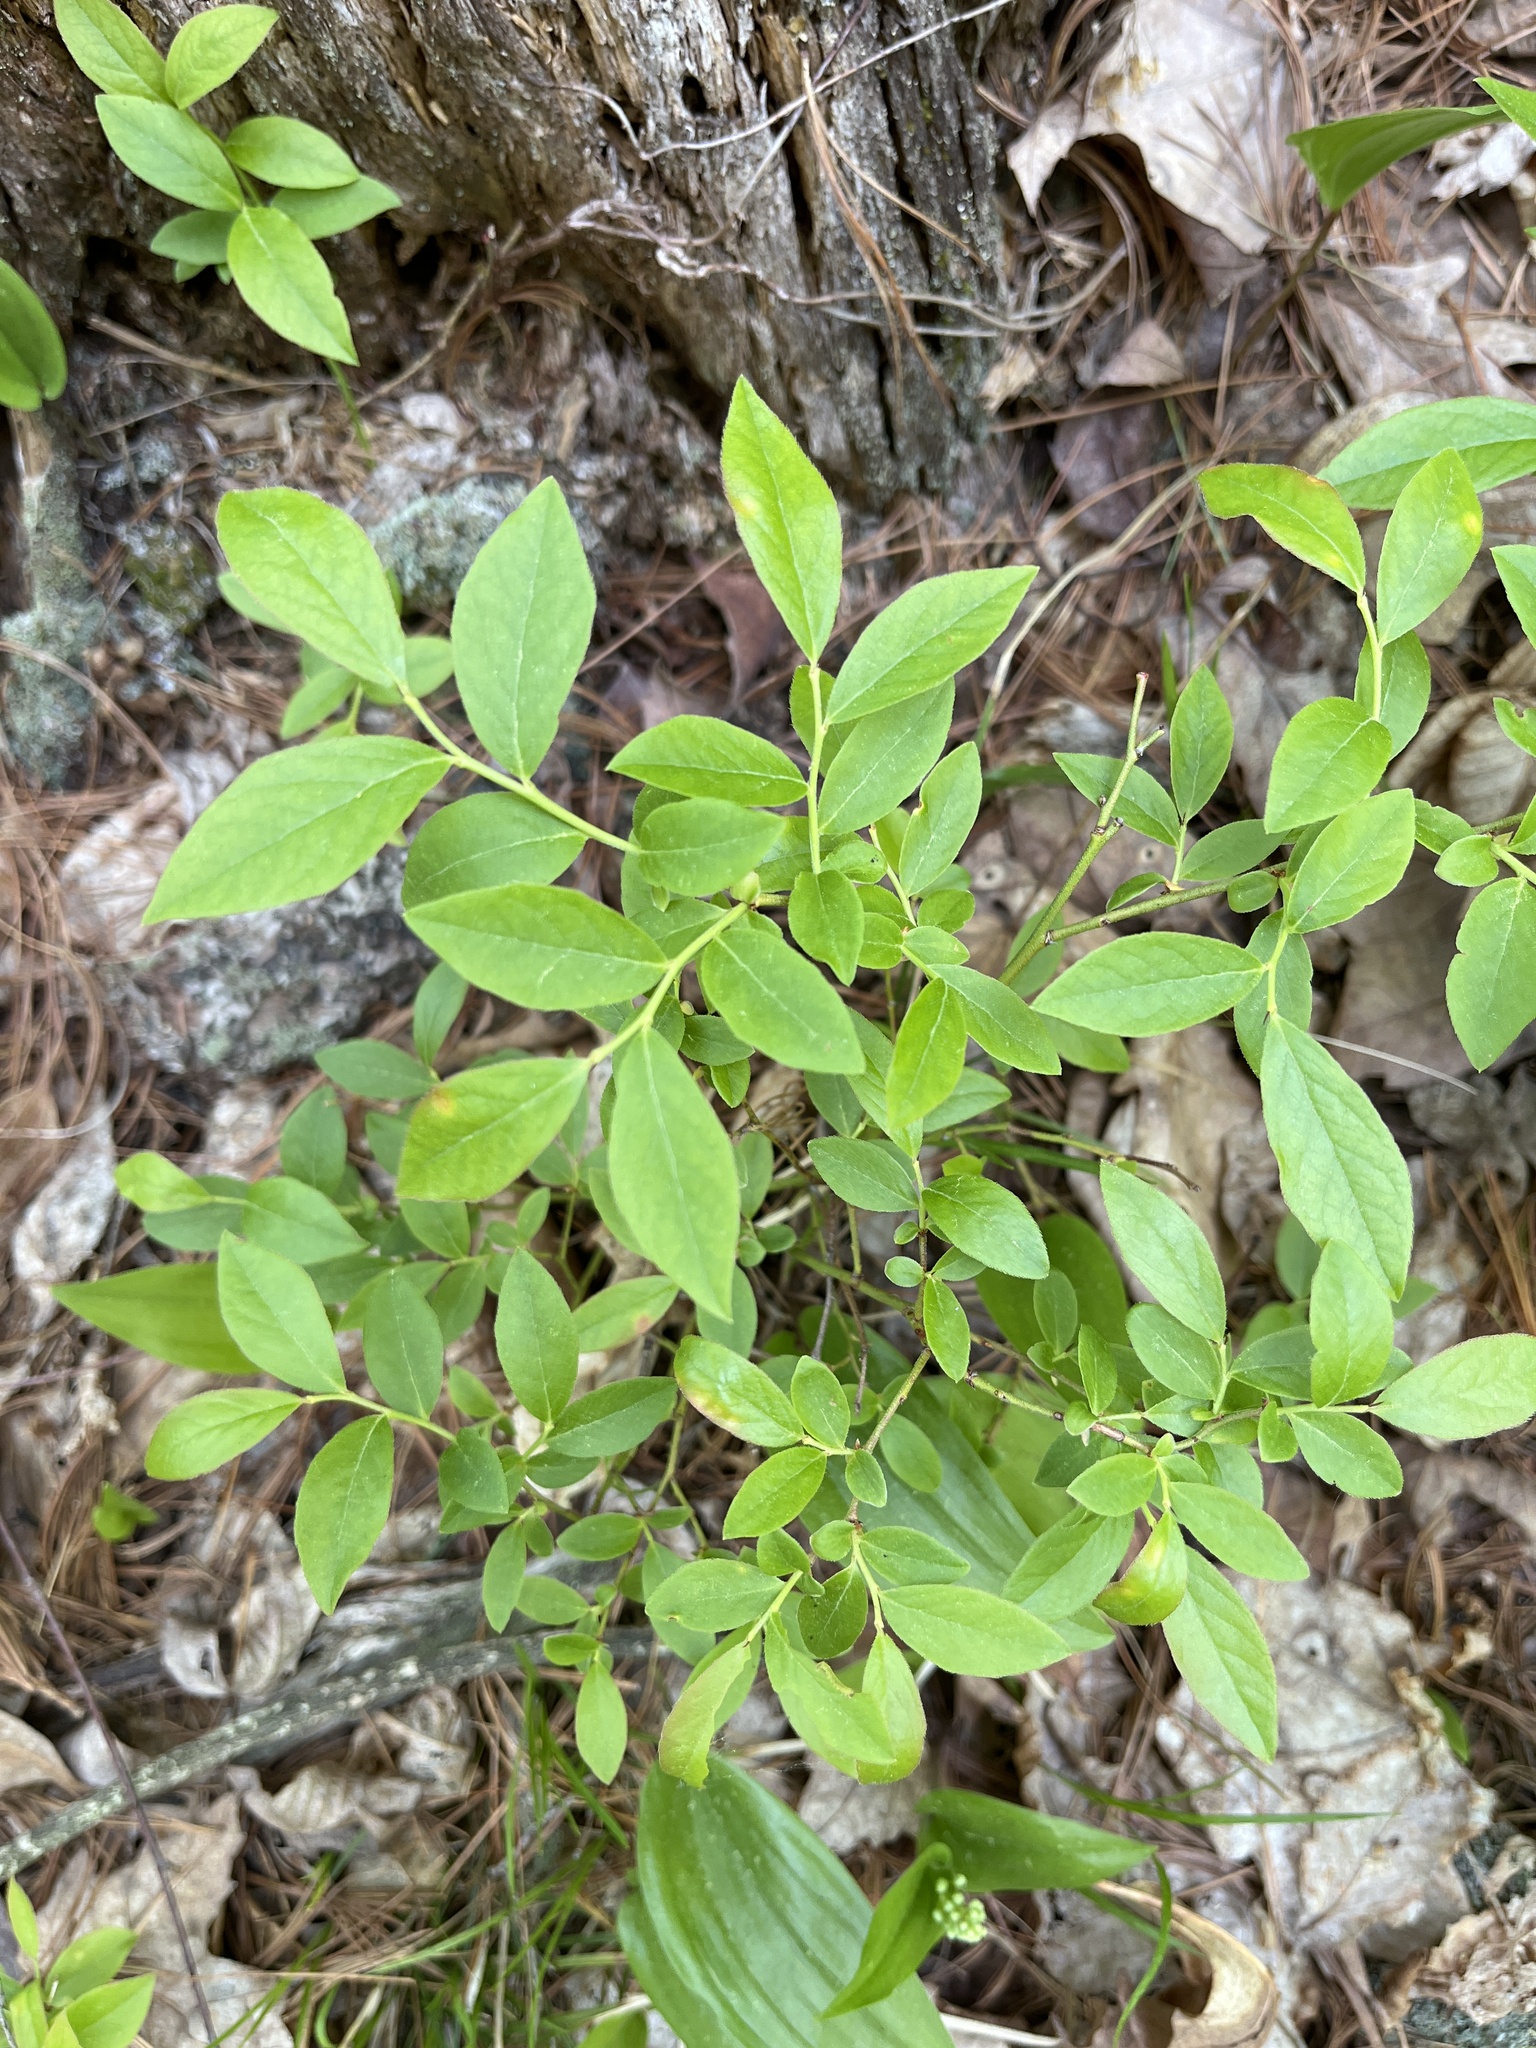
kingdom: Plantae
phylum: Tracheophyta
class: Magnoliopsida
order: Ericales
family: Ericaceae
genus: Vaccinium
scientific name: Vaccinium angustifolium
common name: Early lowbush blueberry
